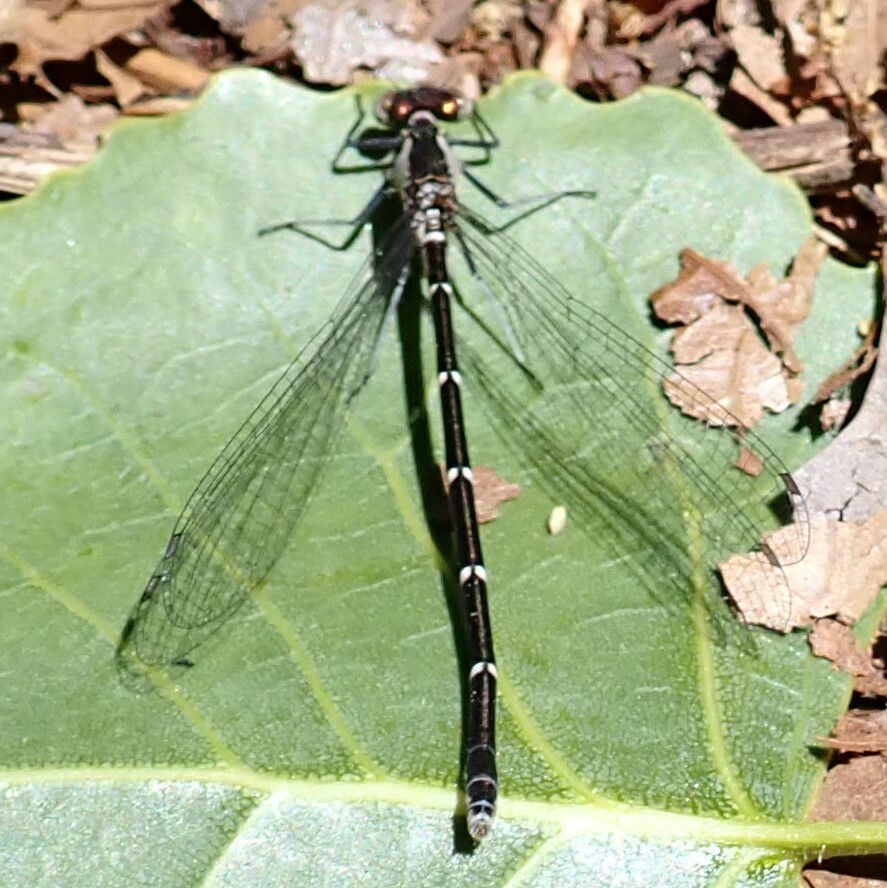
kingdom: Animalia
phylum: Arthropoda
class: Insecta
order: Odonata
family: Coenagrionidae
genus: Chromagrion
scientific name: Chromagrion conditum
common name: Aurora damsel
